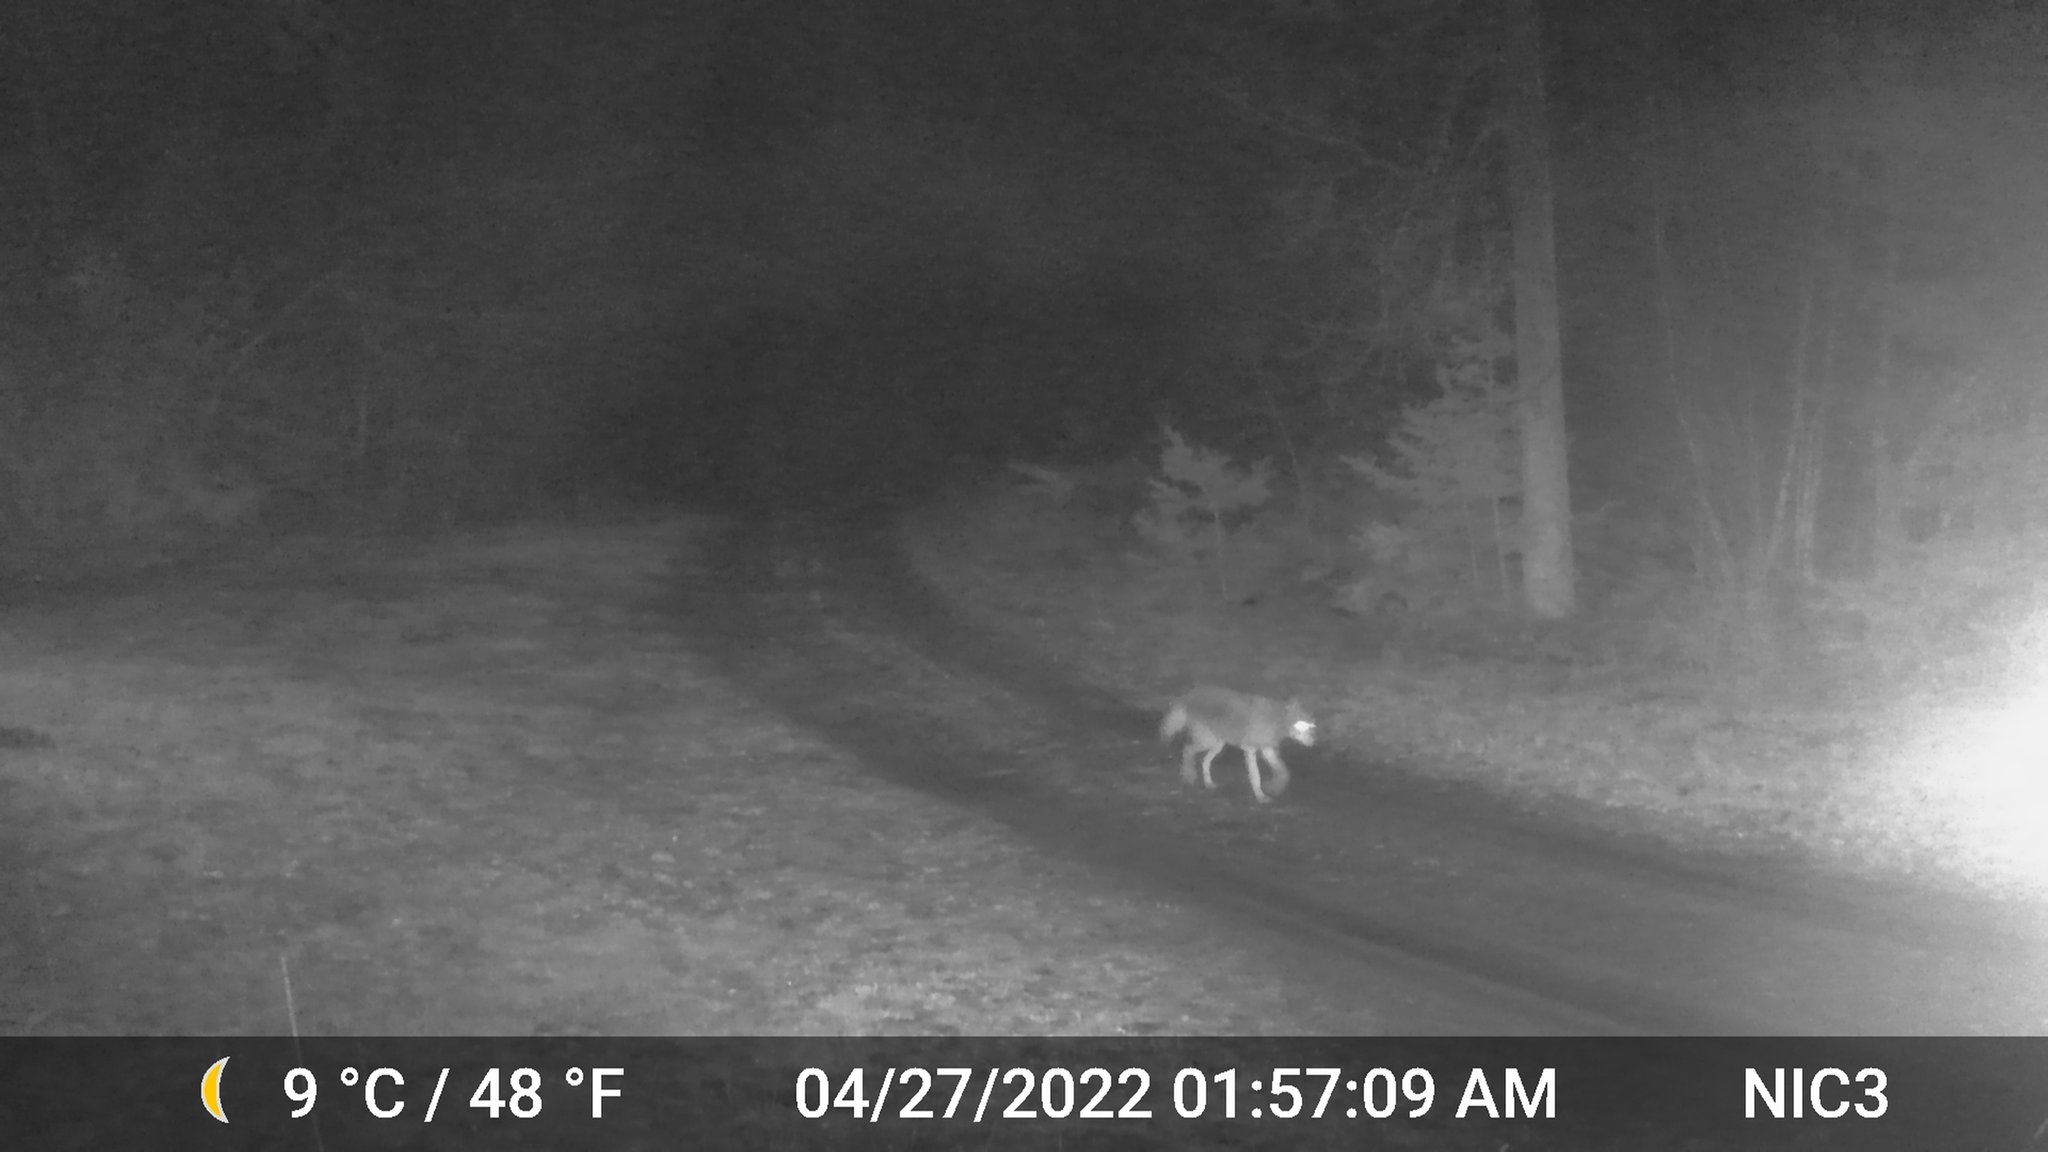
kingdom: Animalia
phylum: Chordata
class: Mammalia
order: Carnivora
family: Canidae
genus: Canis
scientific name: Canis latrans
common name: Coyote
